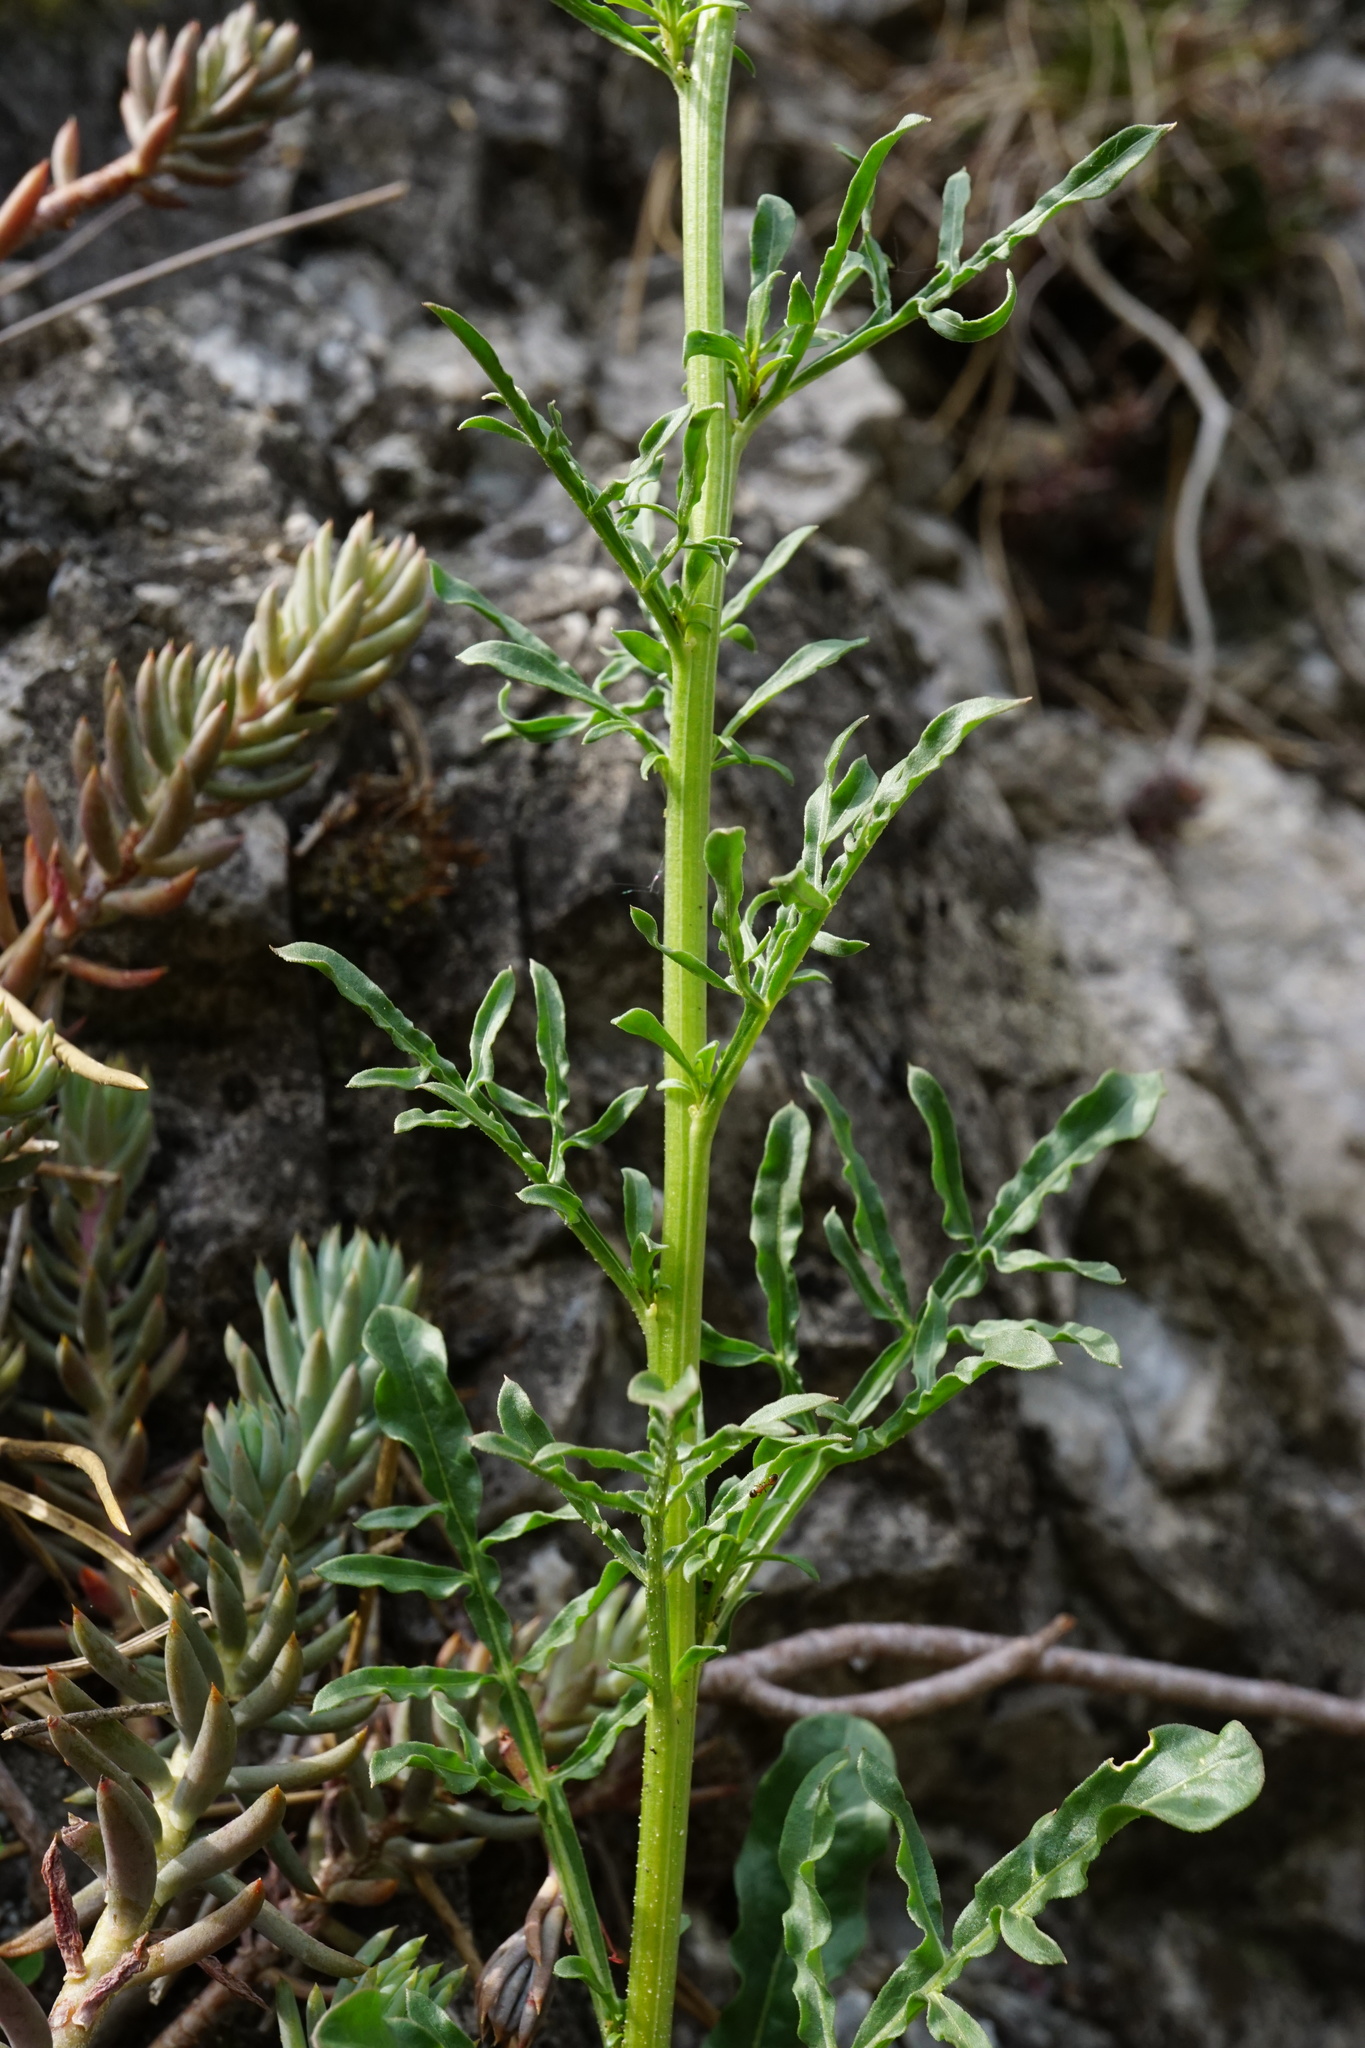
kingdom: Plantae
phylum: Tracheophyta
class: Magnoliopsida
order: Brassicales
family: Resedaceae
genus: Reseda
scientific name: Reseda lutea
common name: Wild mignonette
